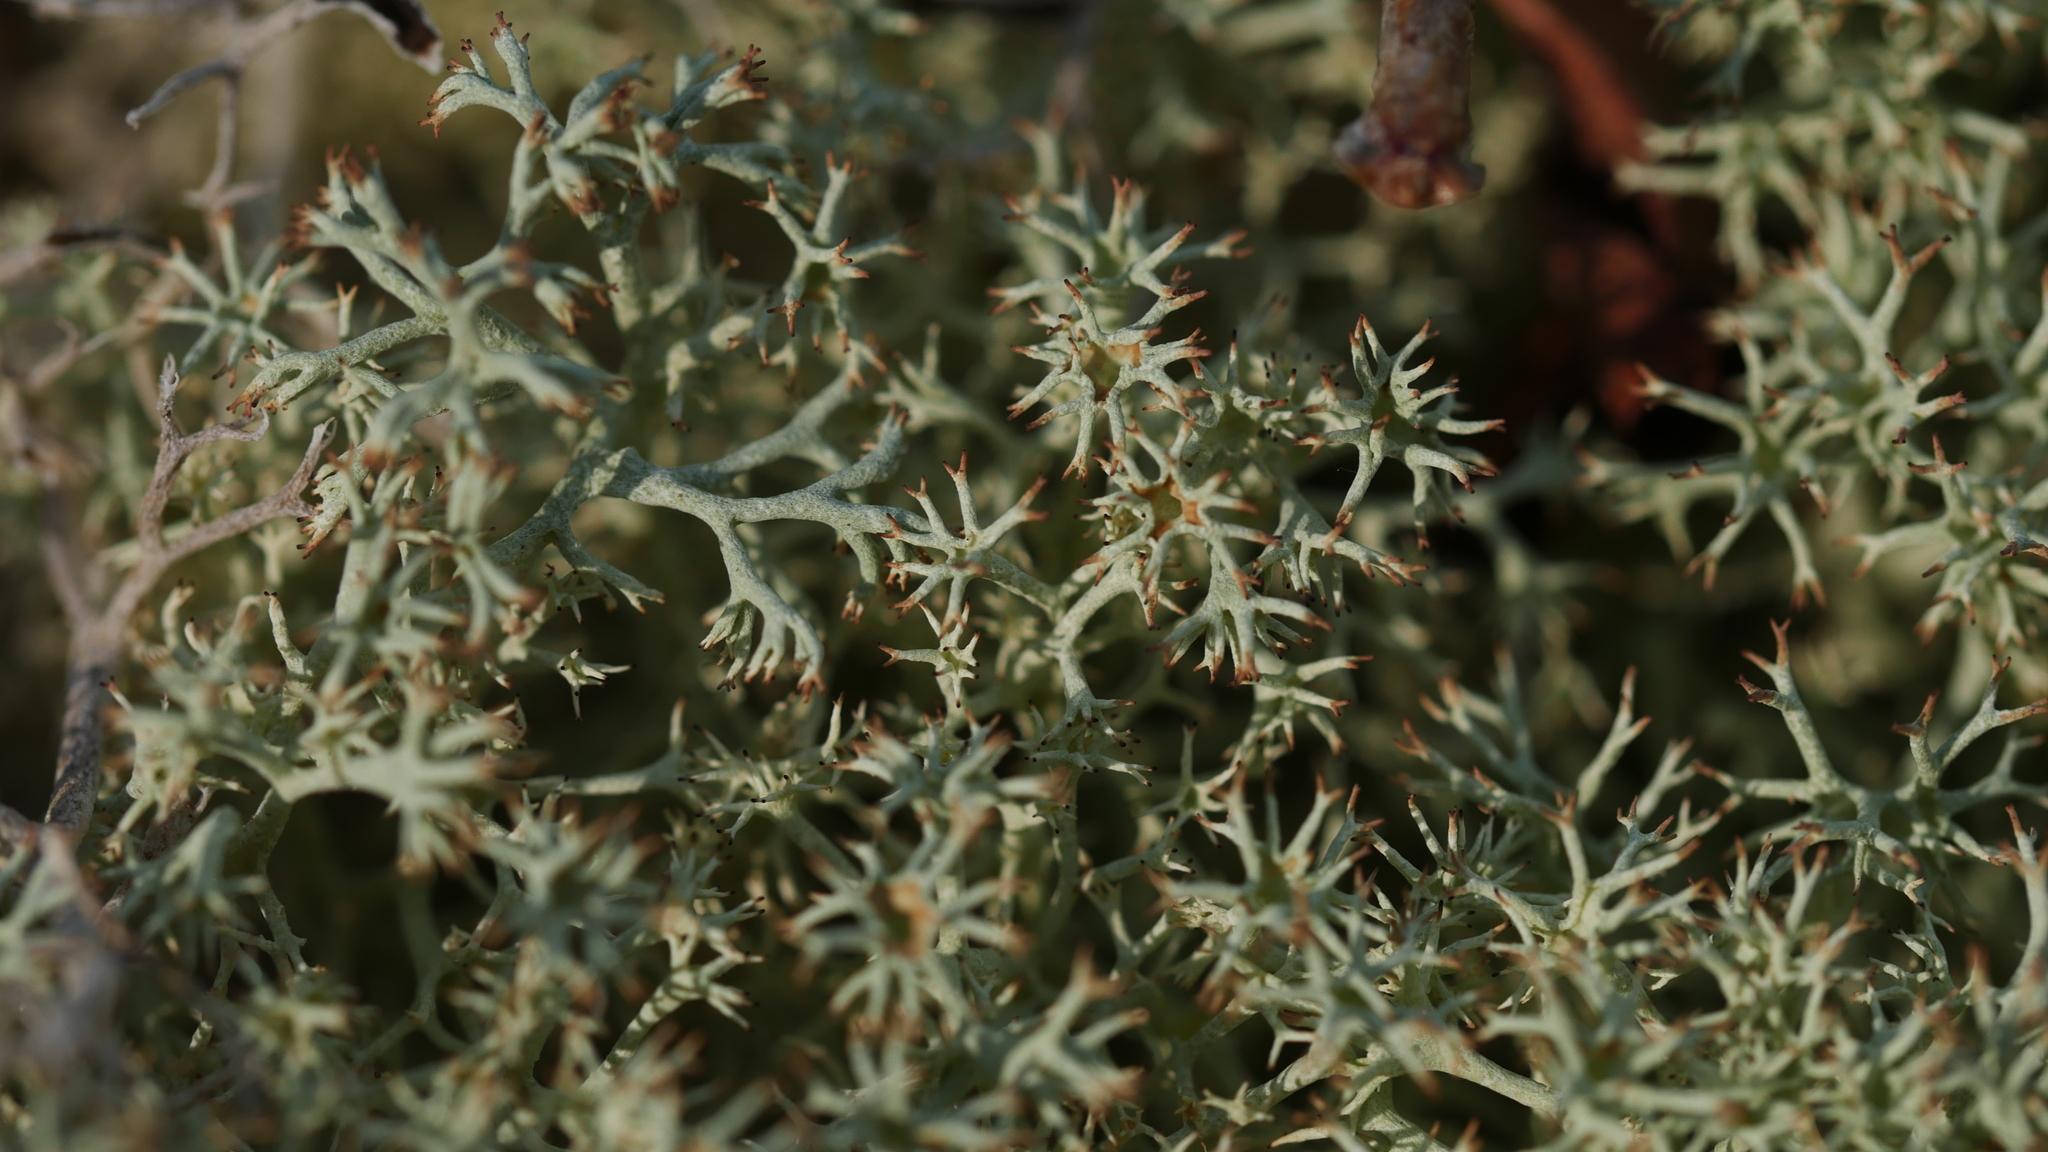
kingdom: Fungi
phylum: Ascomycota
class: Lecanoromycetes
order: Lecanorales
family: Cladoniaceae
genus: Cladonia
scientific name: Cladonia subtenuis
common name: Dixie reindeer lichen
